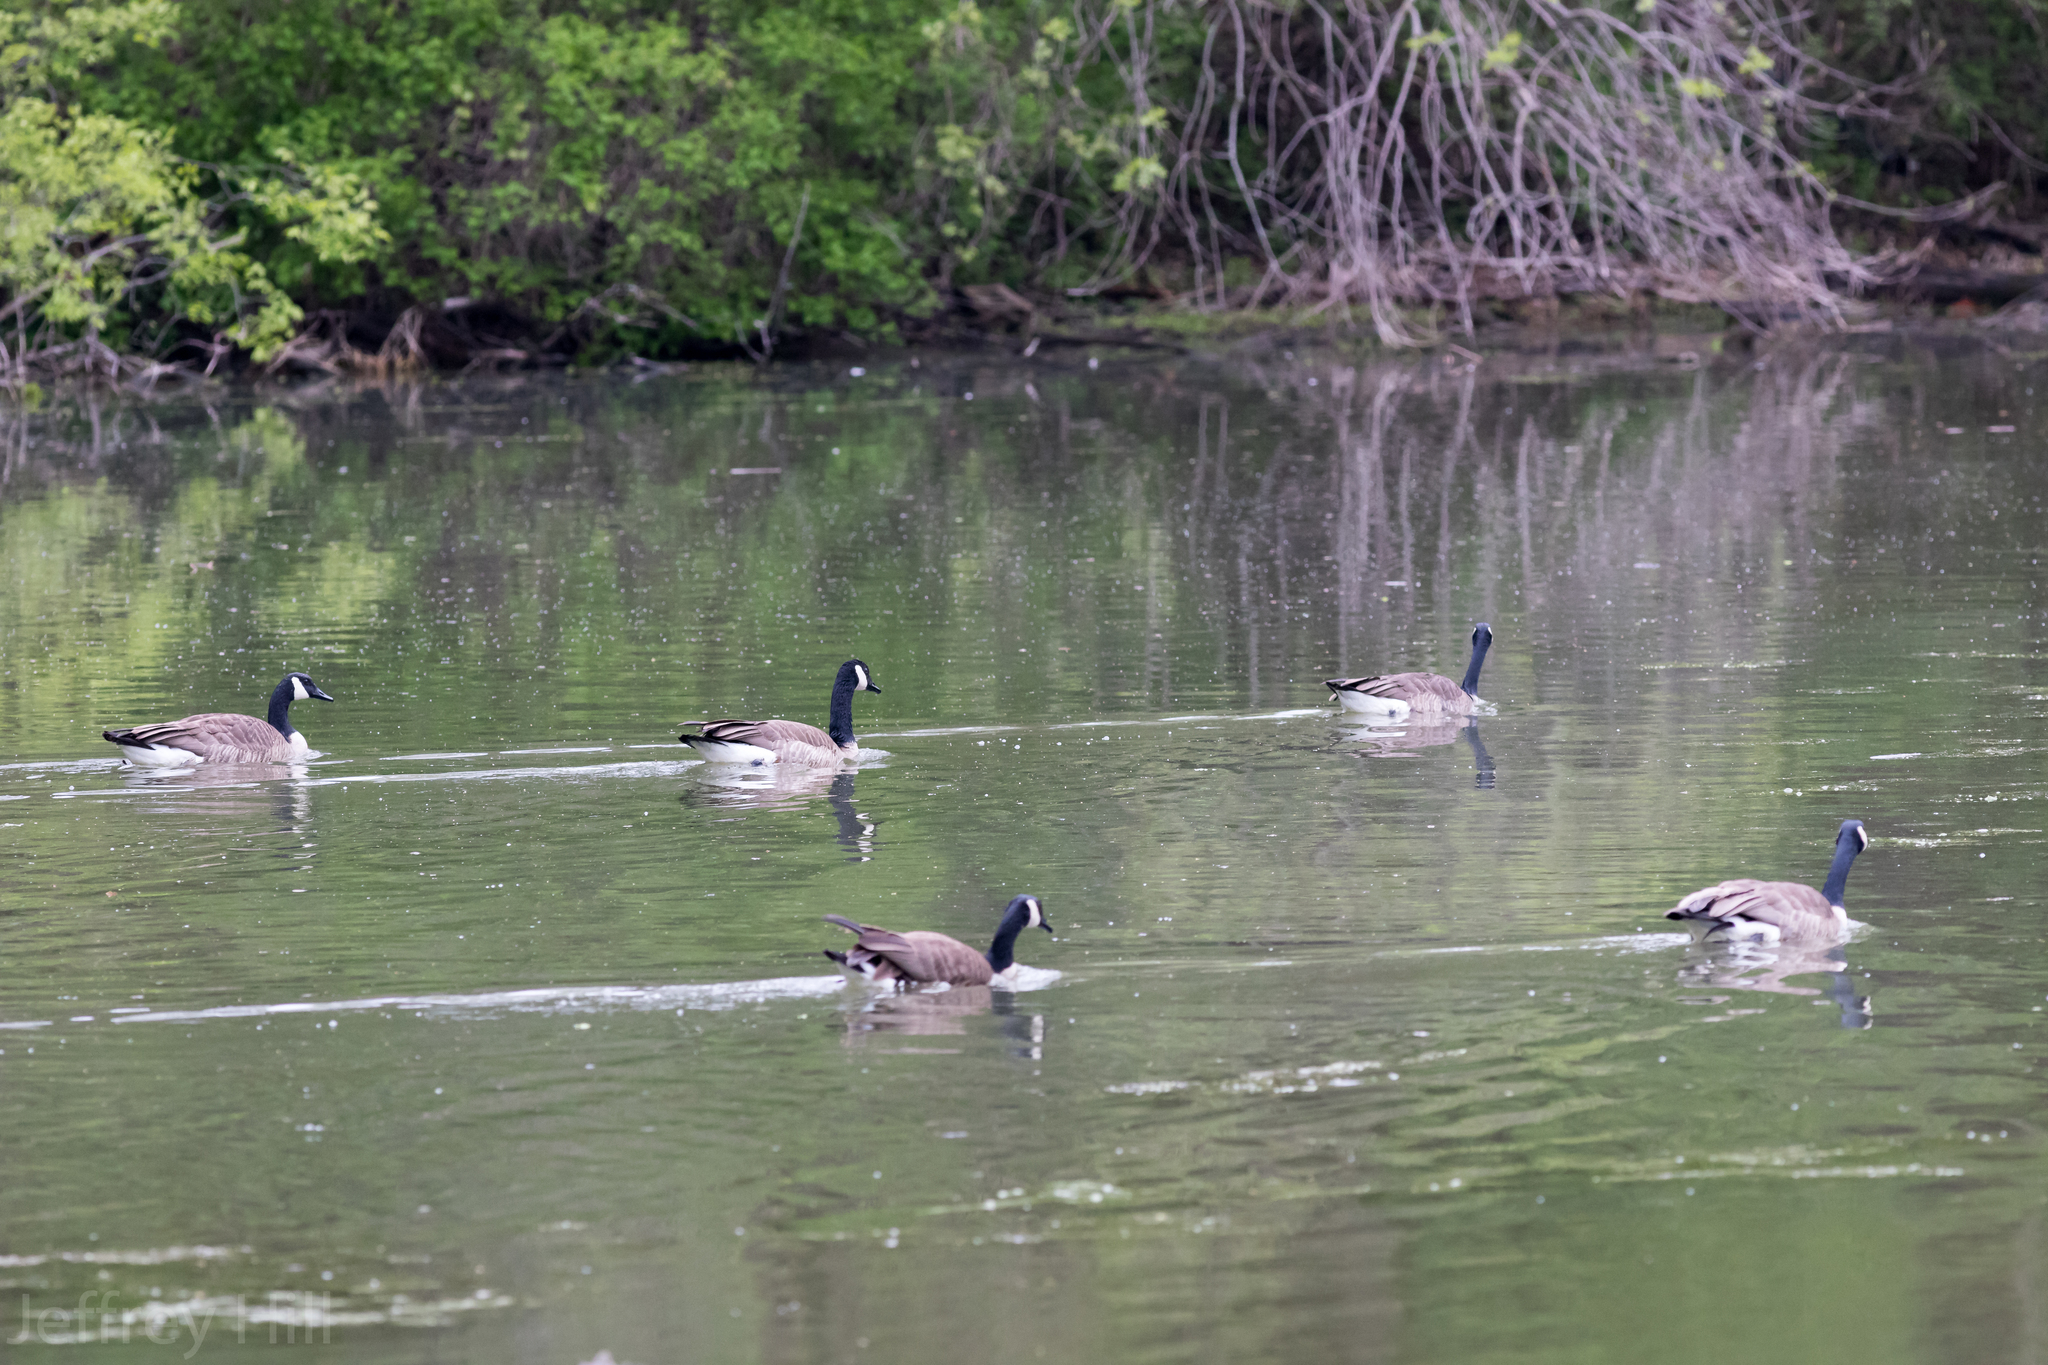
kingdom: Animalia
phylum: Chordata
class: Aves
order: Anseriformes
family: Anatidae
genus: Branta
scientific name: Branta canadensis
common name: Canada goose
